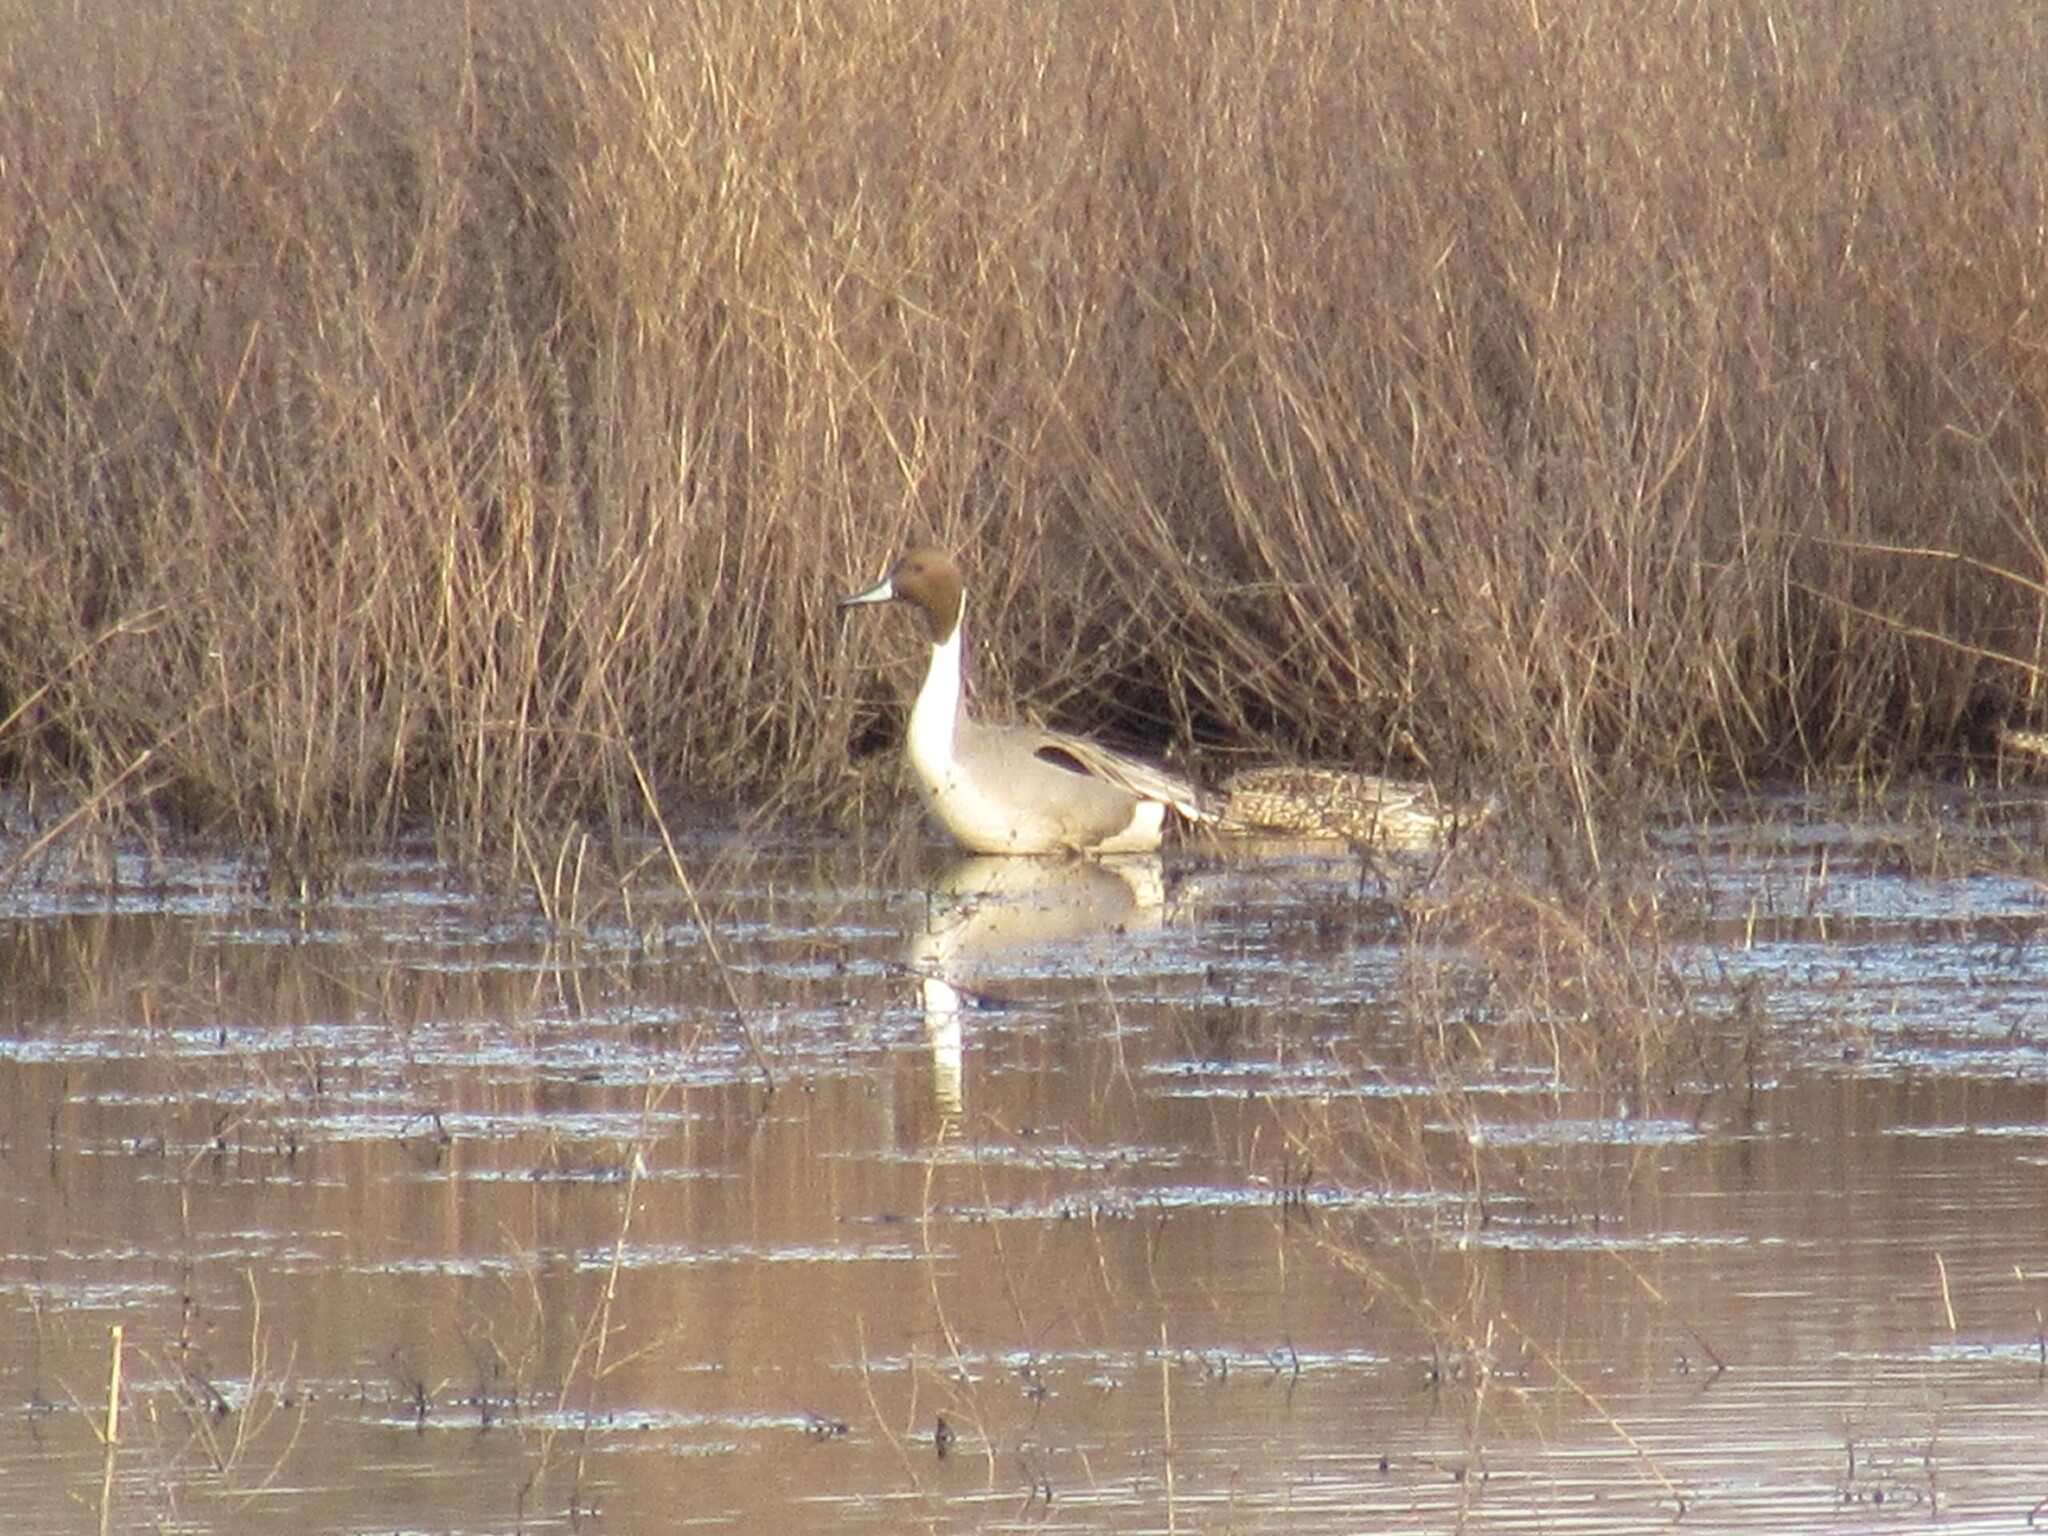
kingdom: Animalia
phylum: Chordata
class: Aves
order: Anseriformes
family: Anatidae
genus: Anas
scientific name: Anas acuta
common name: Northern pintail
